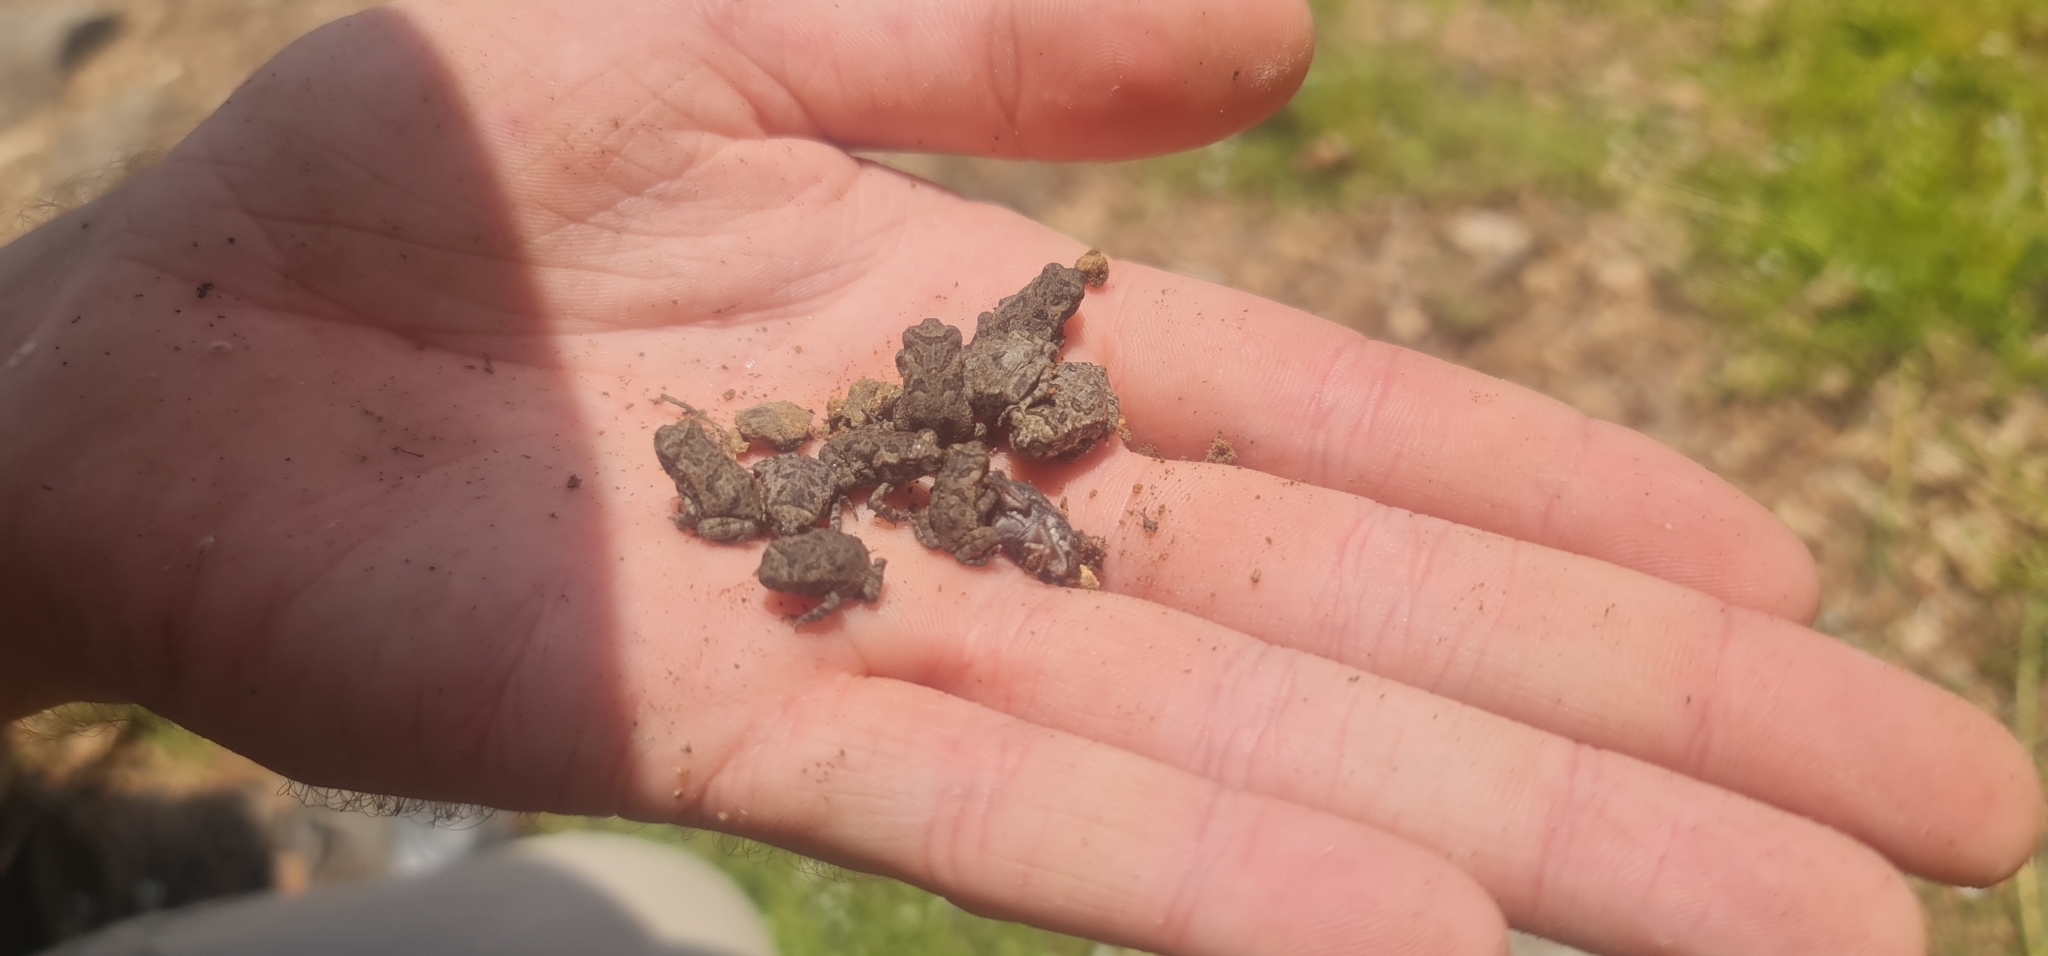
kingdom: Animalia
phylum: Chordata
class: Amphibia
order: Anura
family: Bufonidae
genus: Rhinella
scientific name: Rhinella marina
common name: Cane toad
